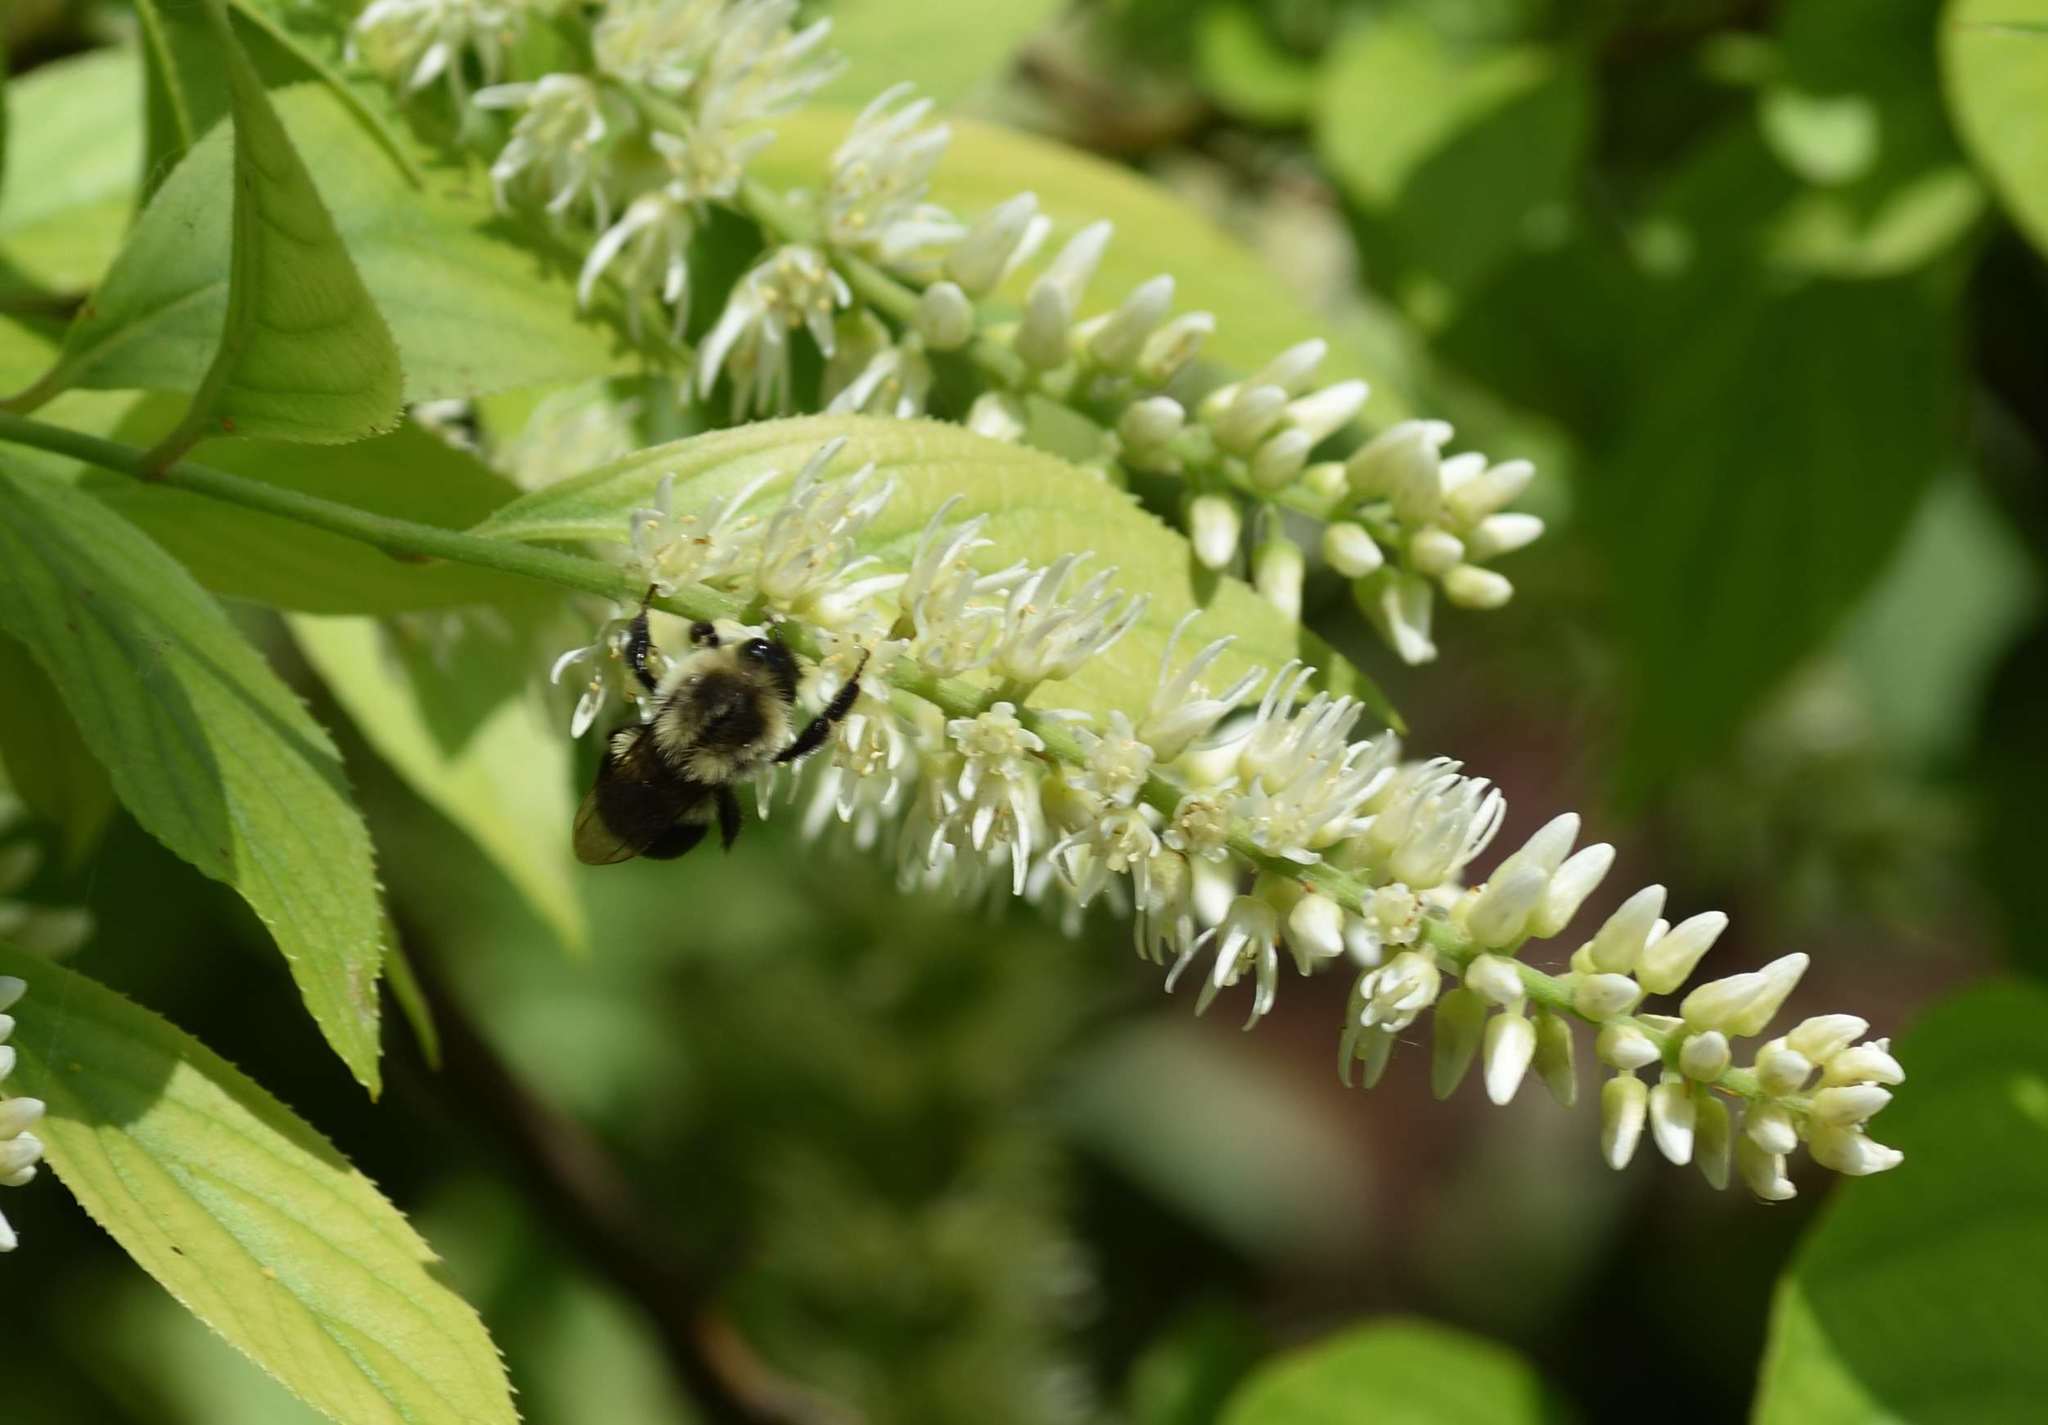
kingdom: Animalia
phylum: Arthropoda
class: Insecta
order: Hymenoptera
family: Apidae
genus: Bombus
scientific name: Bombus impatiens
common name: Common eastern bumble bee
